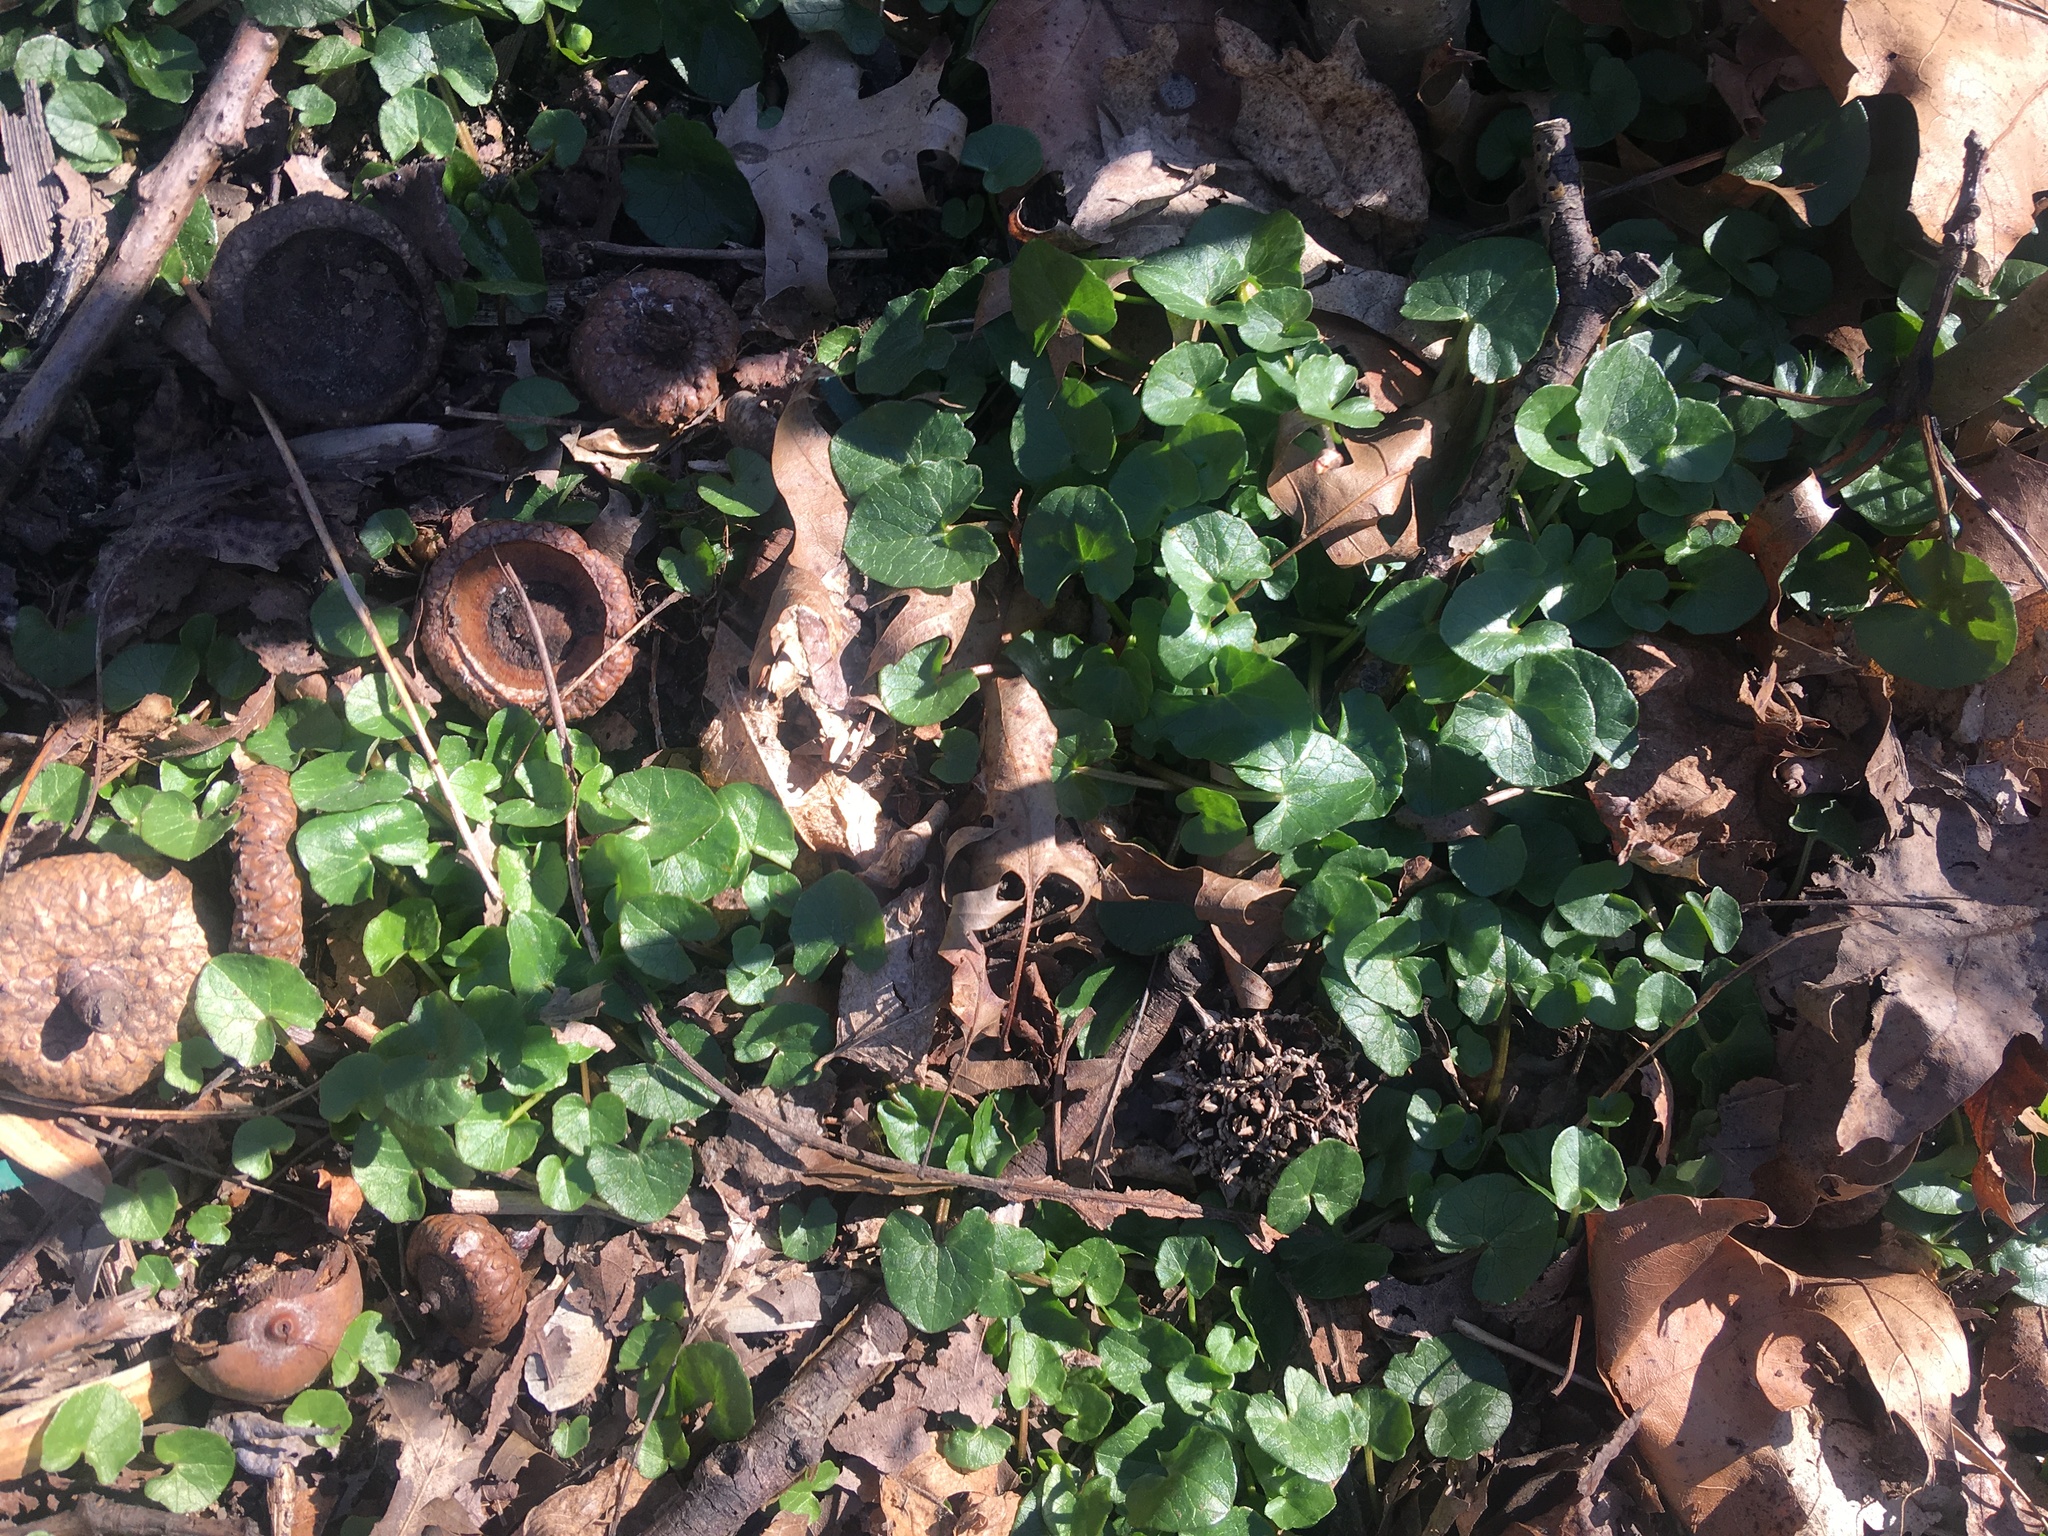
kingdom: Plantae
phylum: Tracheophyta
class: Magnoliopsida
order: Ranunculales
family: Ranunculaceae
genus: Ficaria
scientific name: Ficaria verna
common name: Lesser celandine
